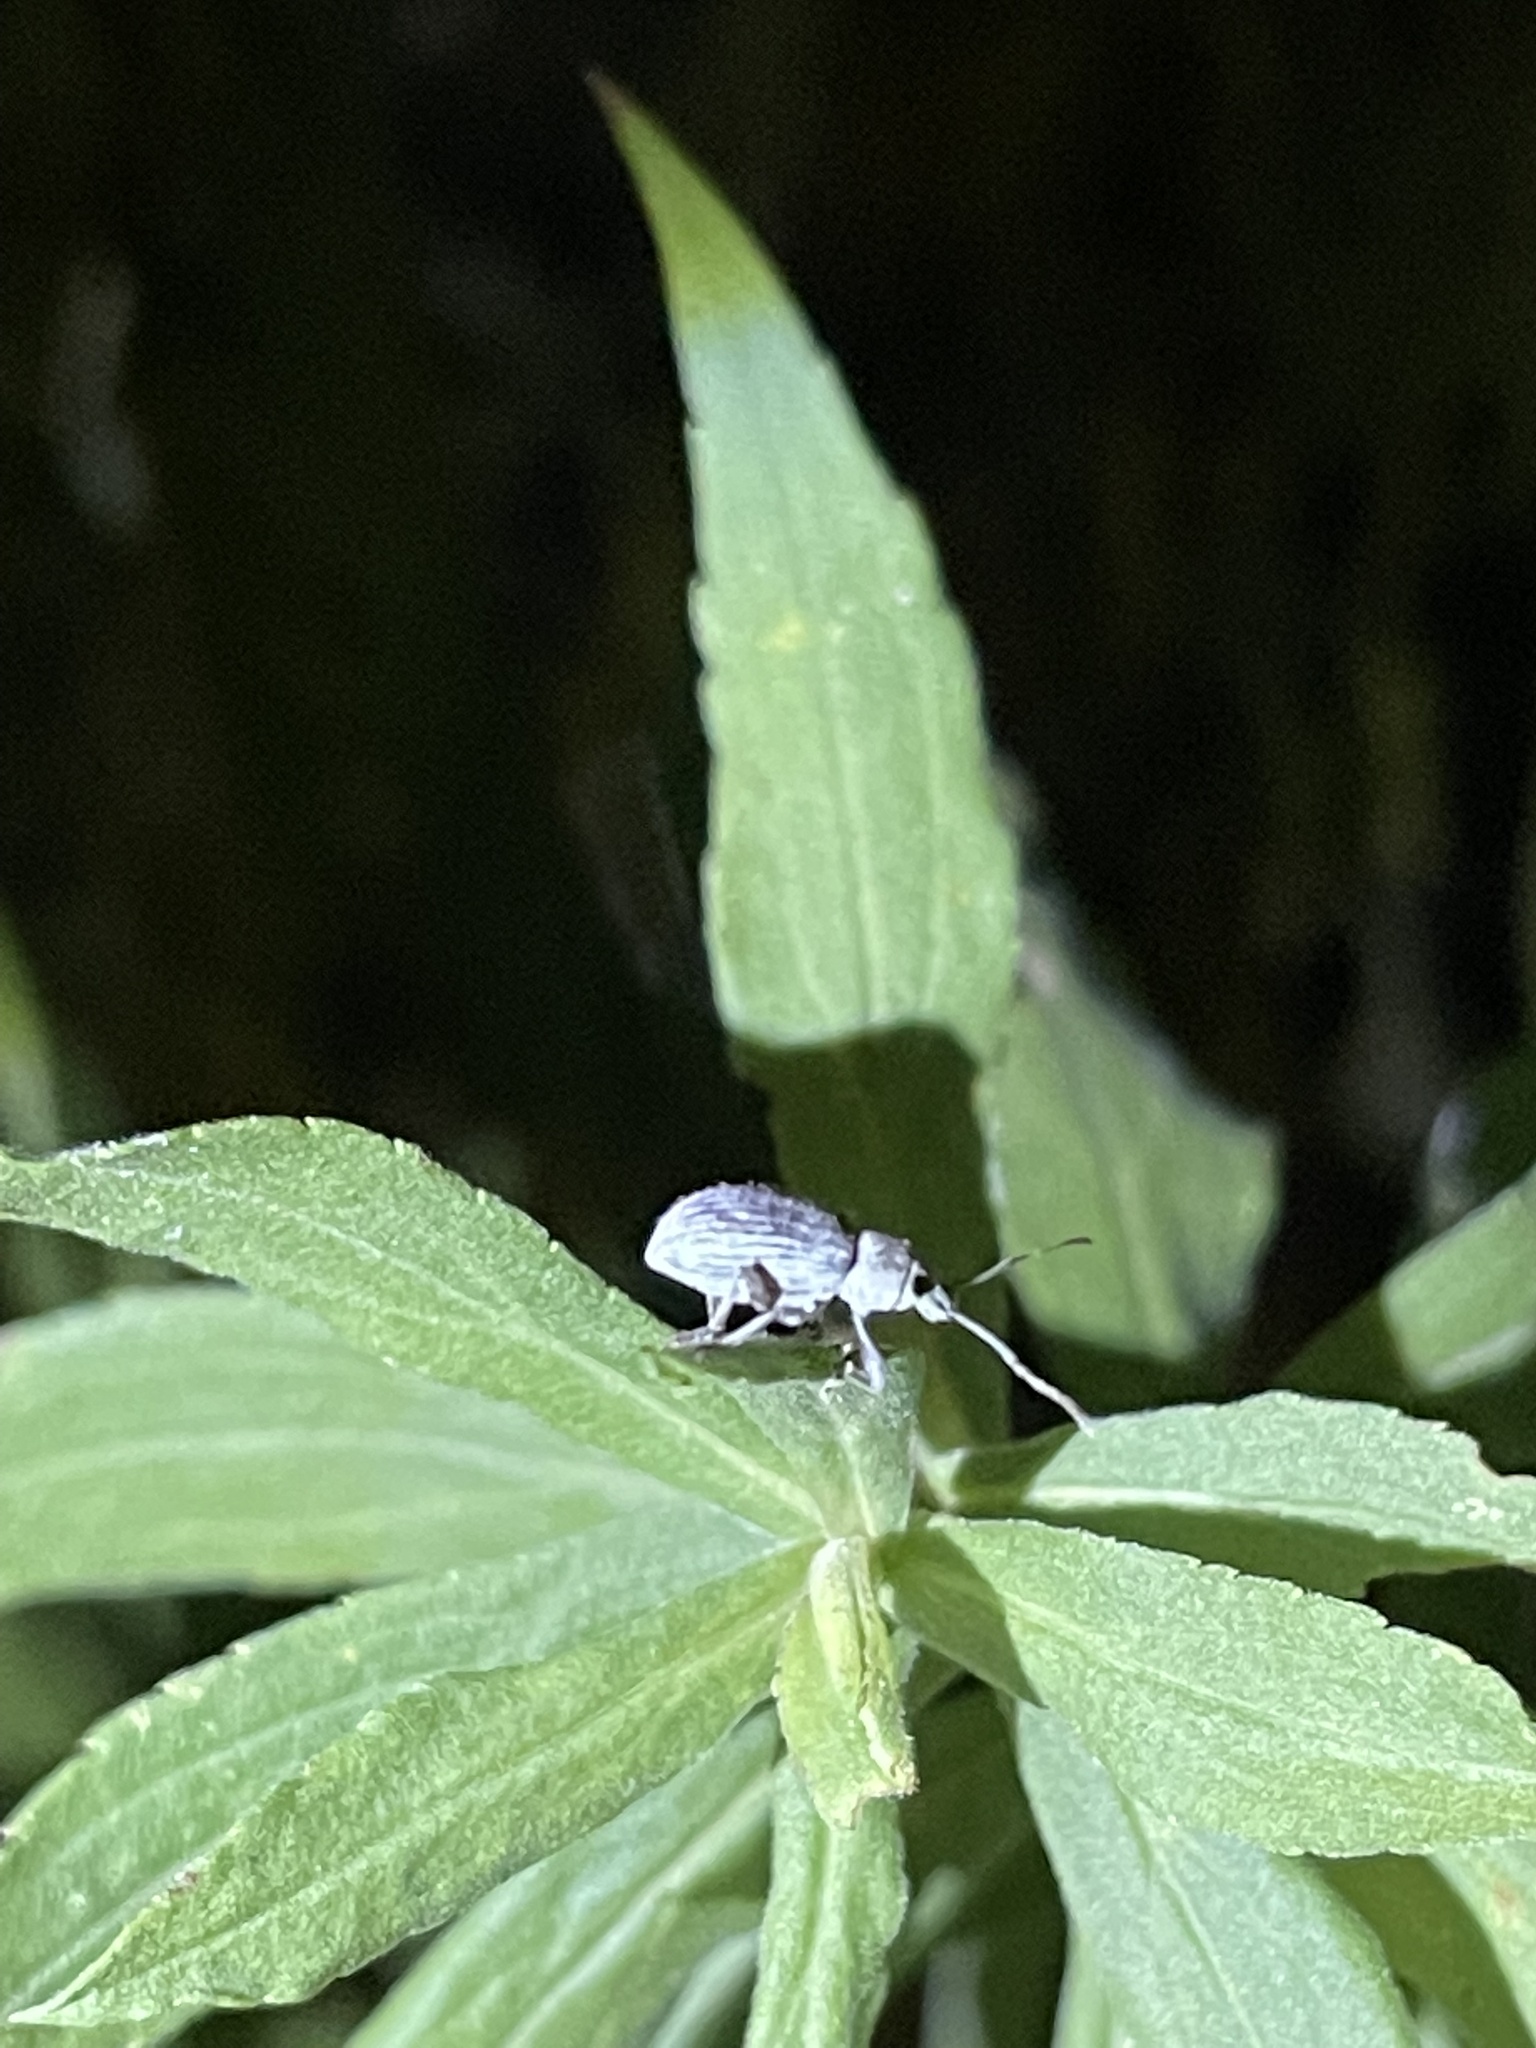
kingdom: Animalia
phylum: Arthropoda
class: Insecta
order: Coleoptera
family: Curculionidae
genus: Cyrtepistomus
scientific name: Cyrtepistomus castaneus
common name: Weevil
